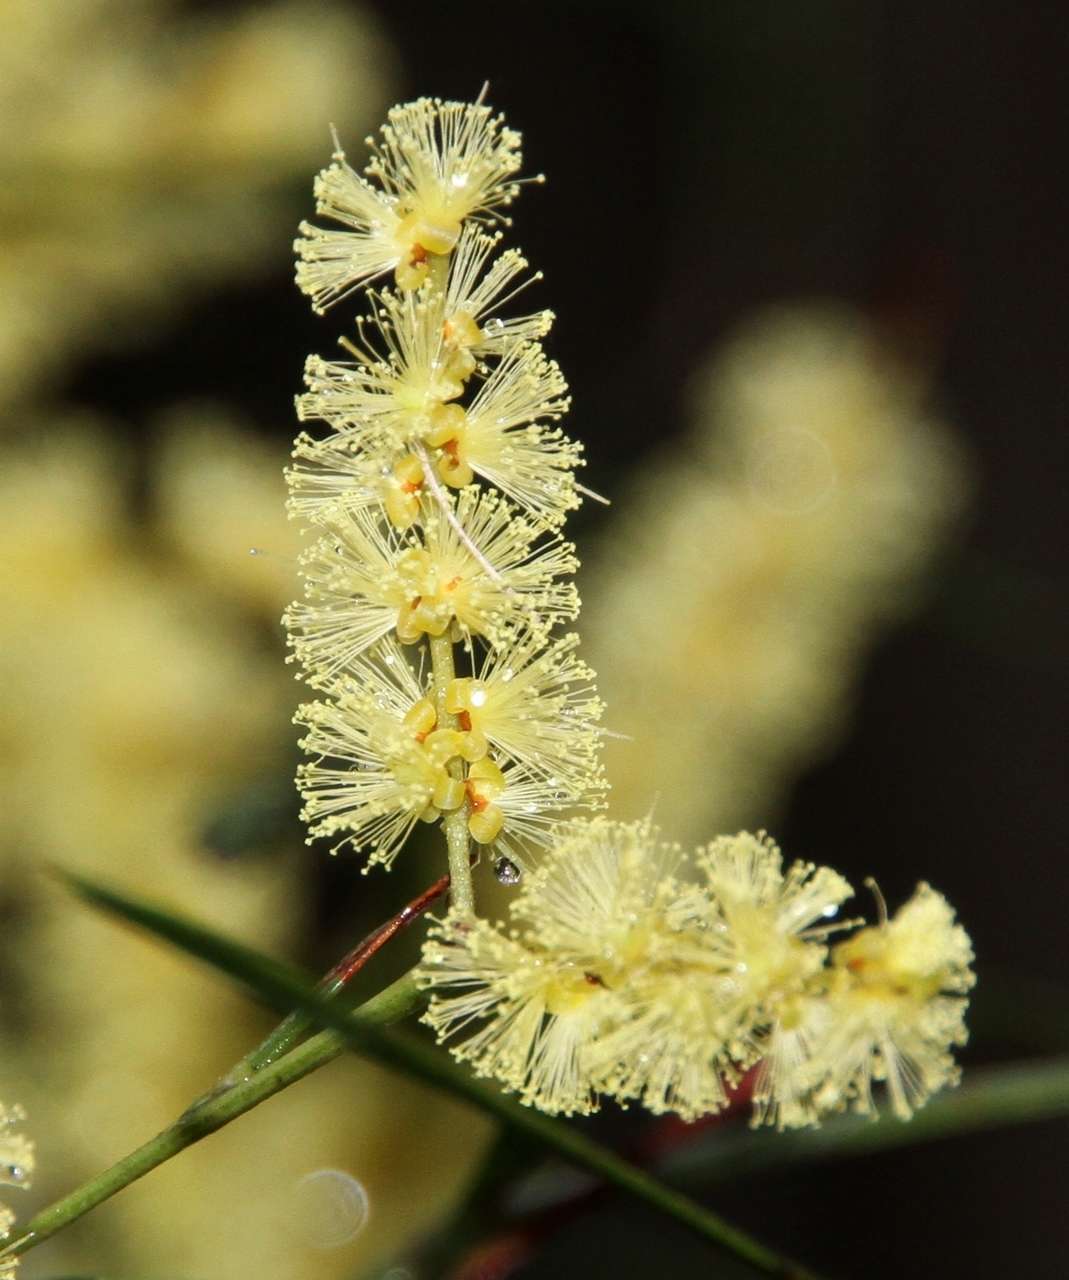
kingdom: Plantae
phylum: Tracheophyta
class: Magnoliopsida
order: Fabales
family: Fabaceae
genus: Acacia
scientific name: Acacia mucronata
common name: Variable sallow wattle
